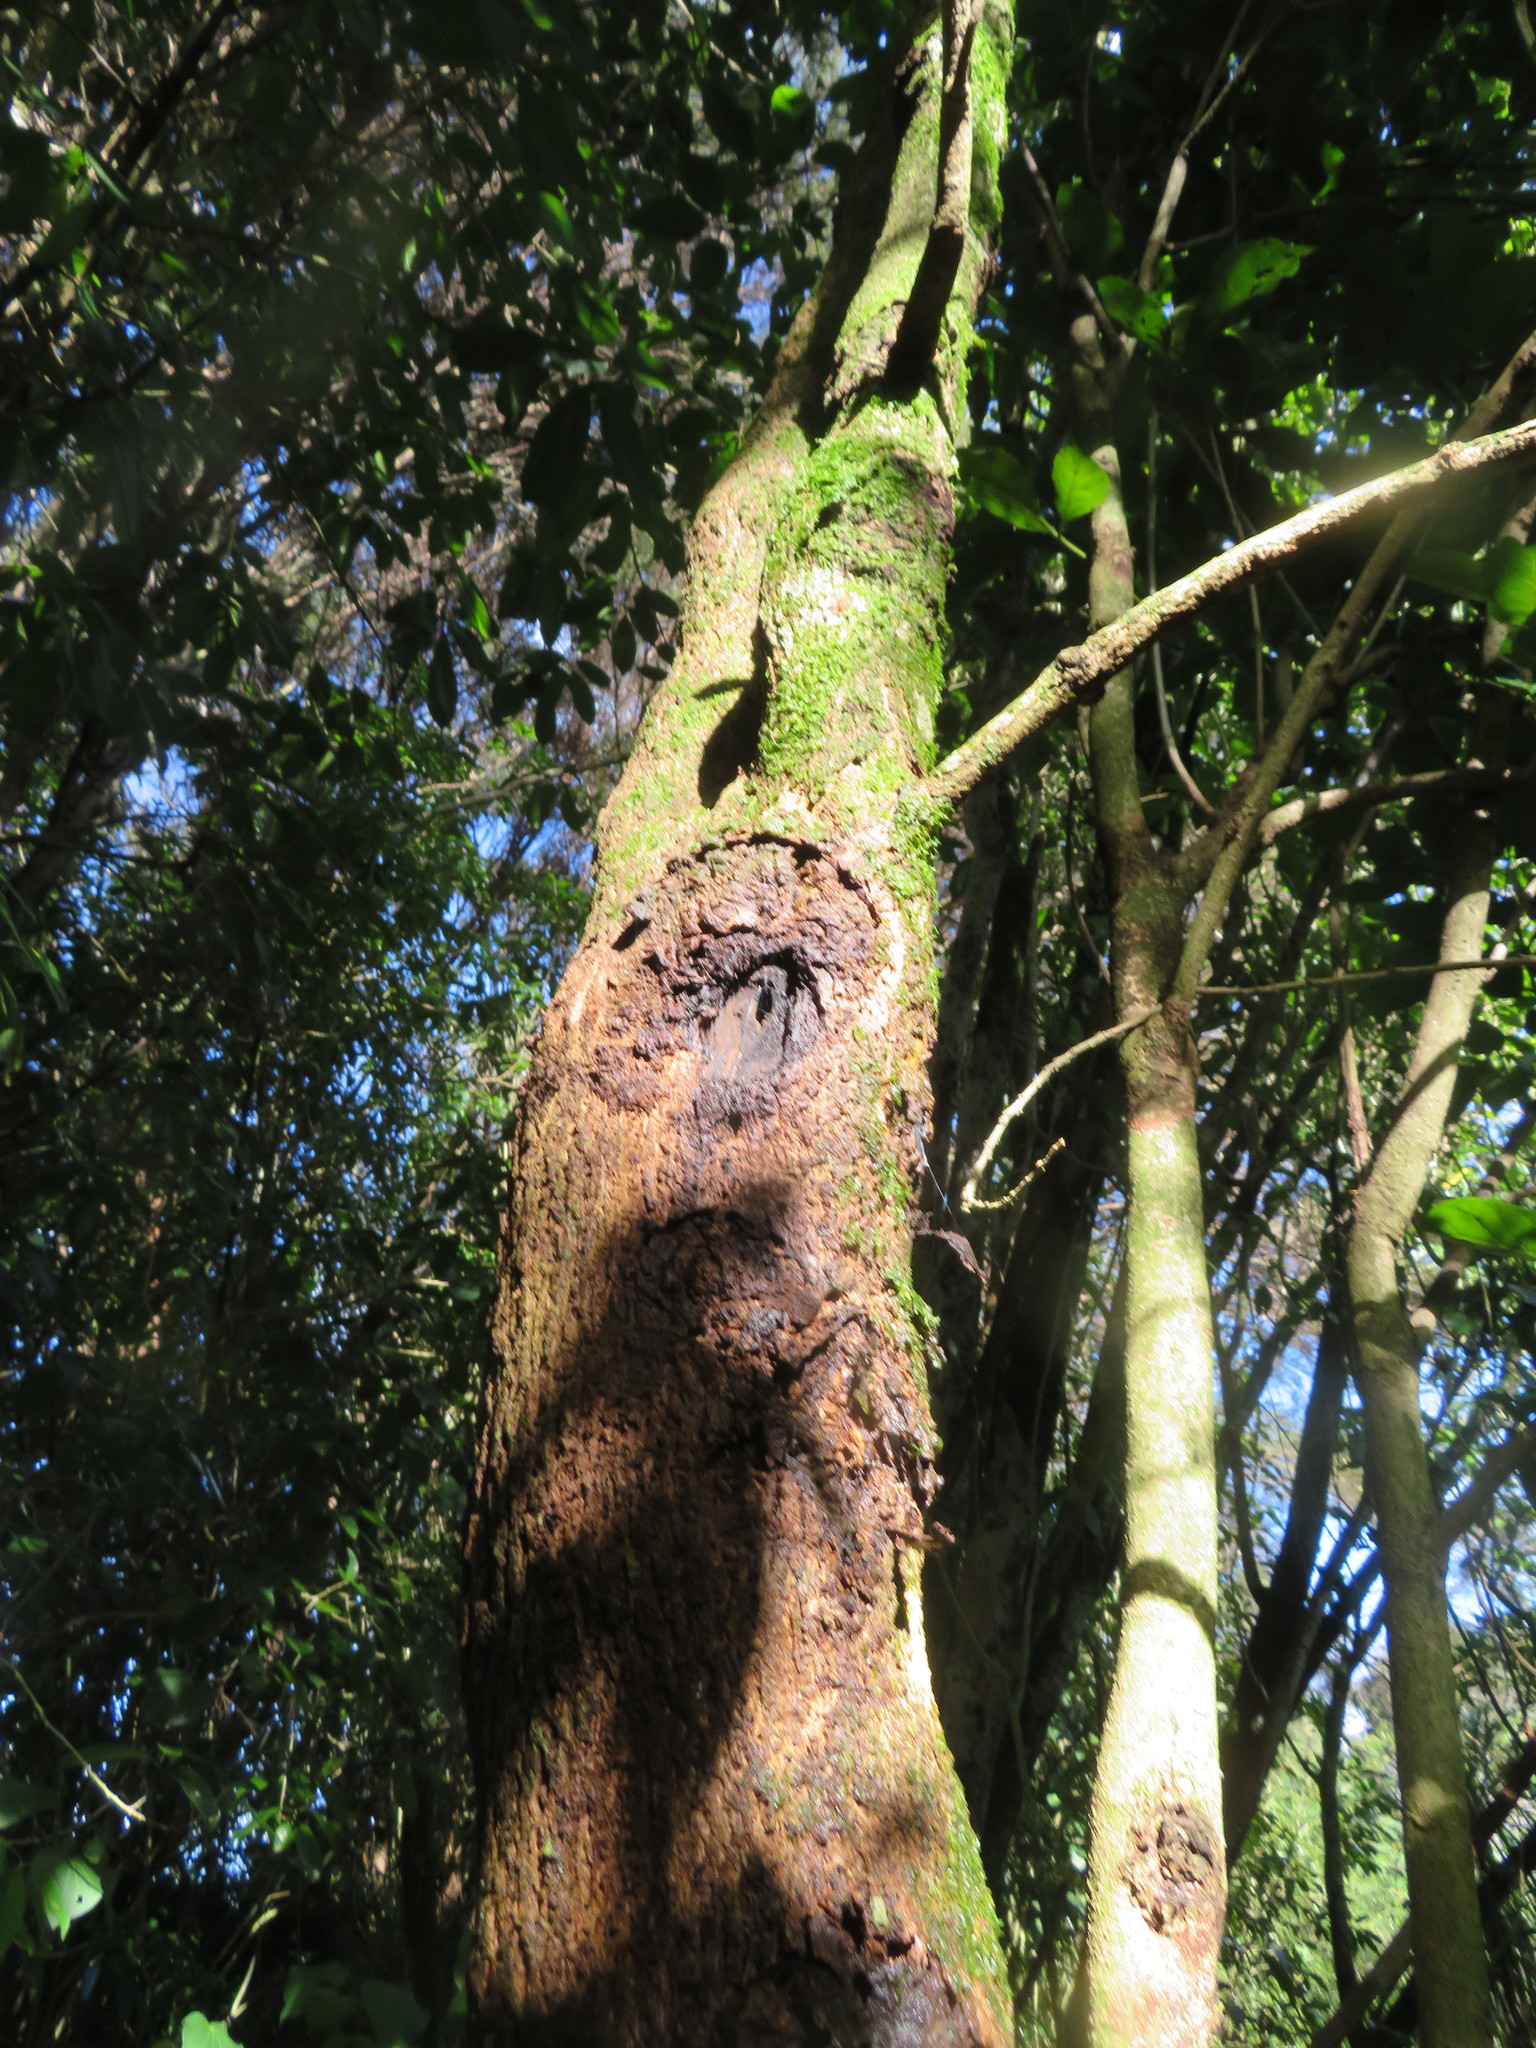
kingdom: Animalia
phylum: Arthropoda
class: Insecta
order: Lepidoptera
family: Hepialidae
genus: Aenetus
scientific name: Aenetus virescens
